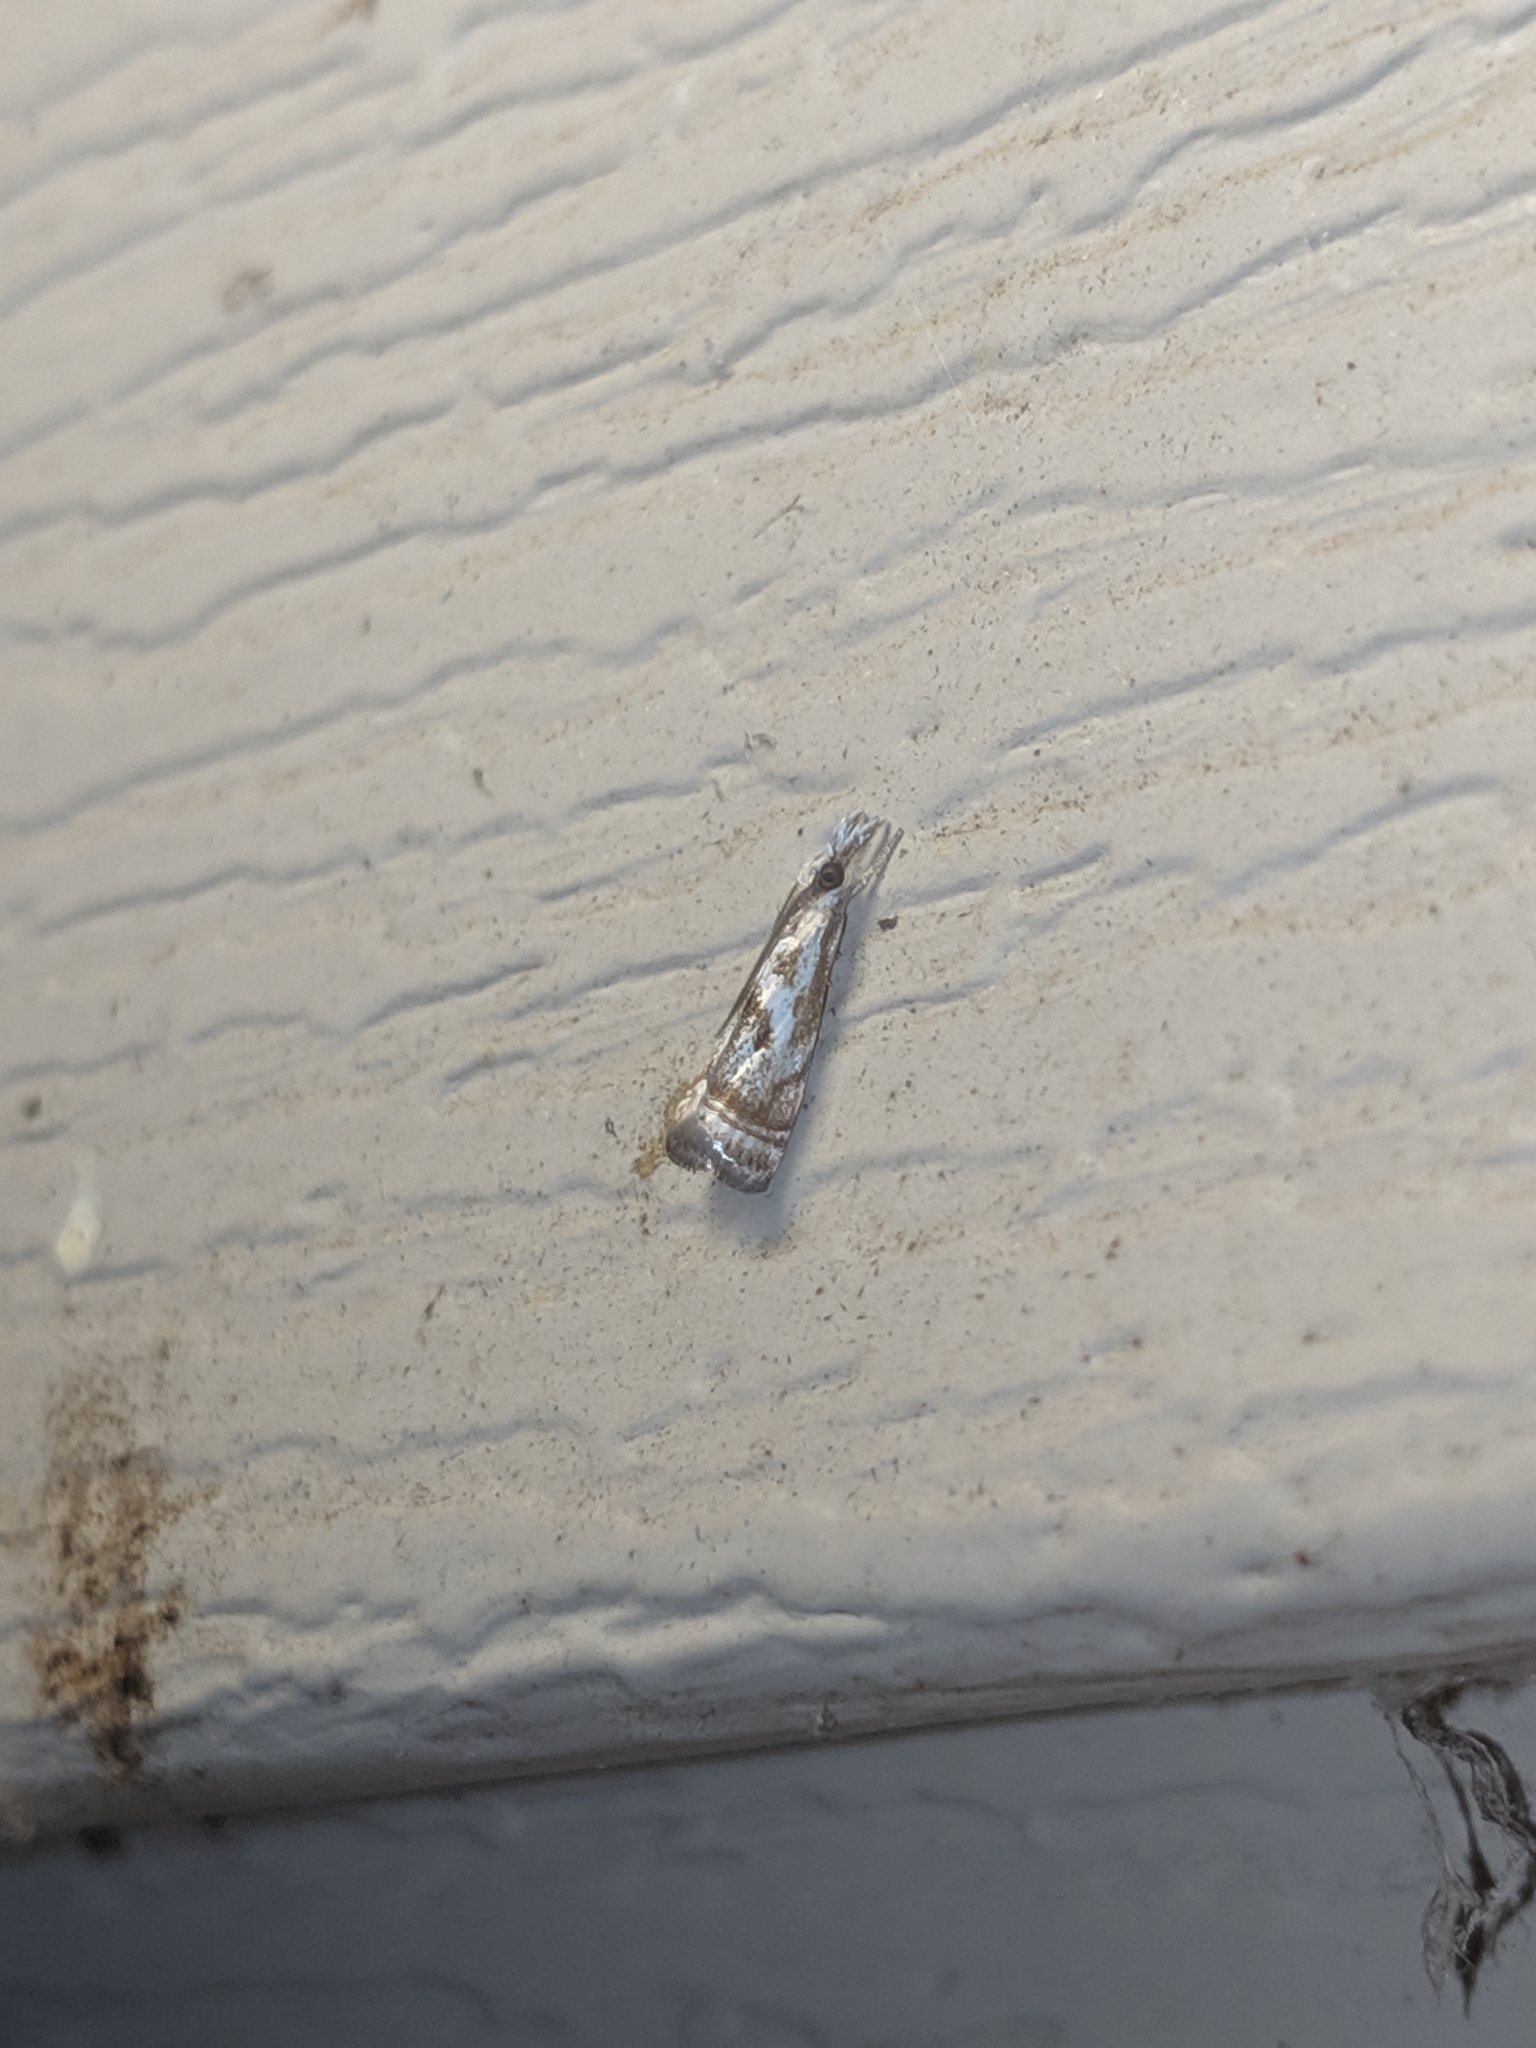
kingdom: Animalia
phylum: Arthropoda
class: Insecta
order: Lepidoptera
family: Crambidae
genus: Microcrambus
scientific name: Microcrambus elegans
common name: Elegant grass-veneer
